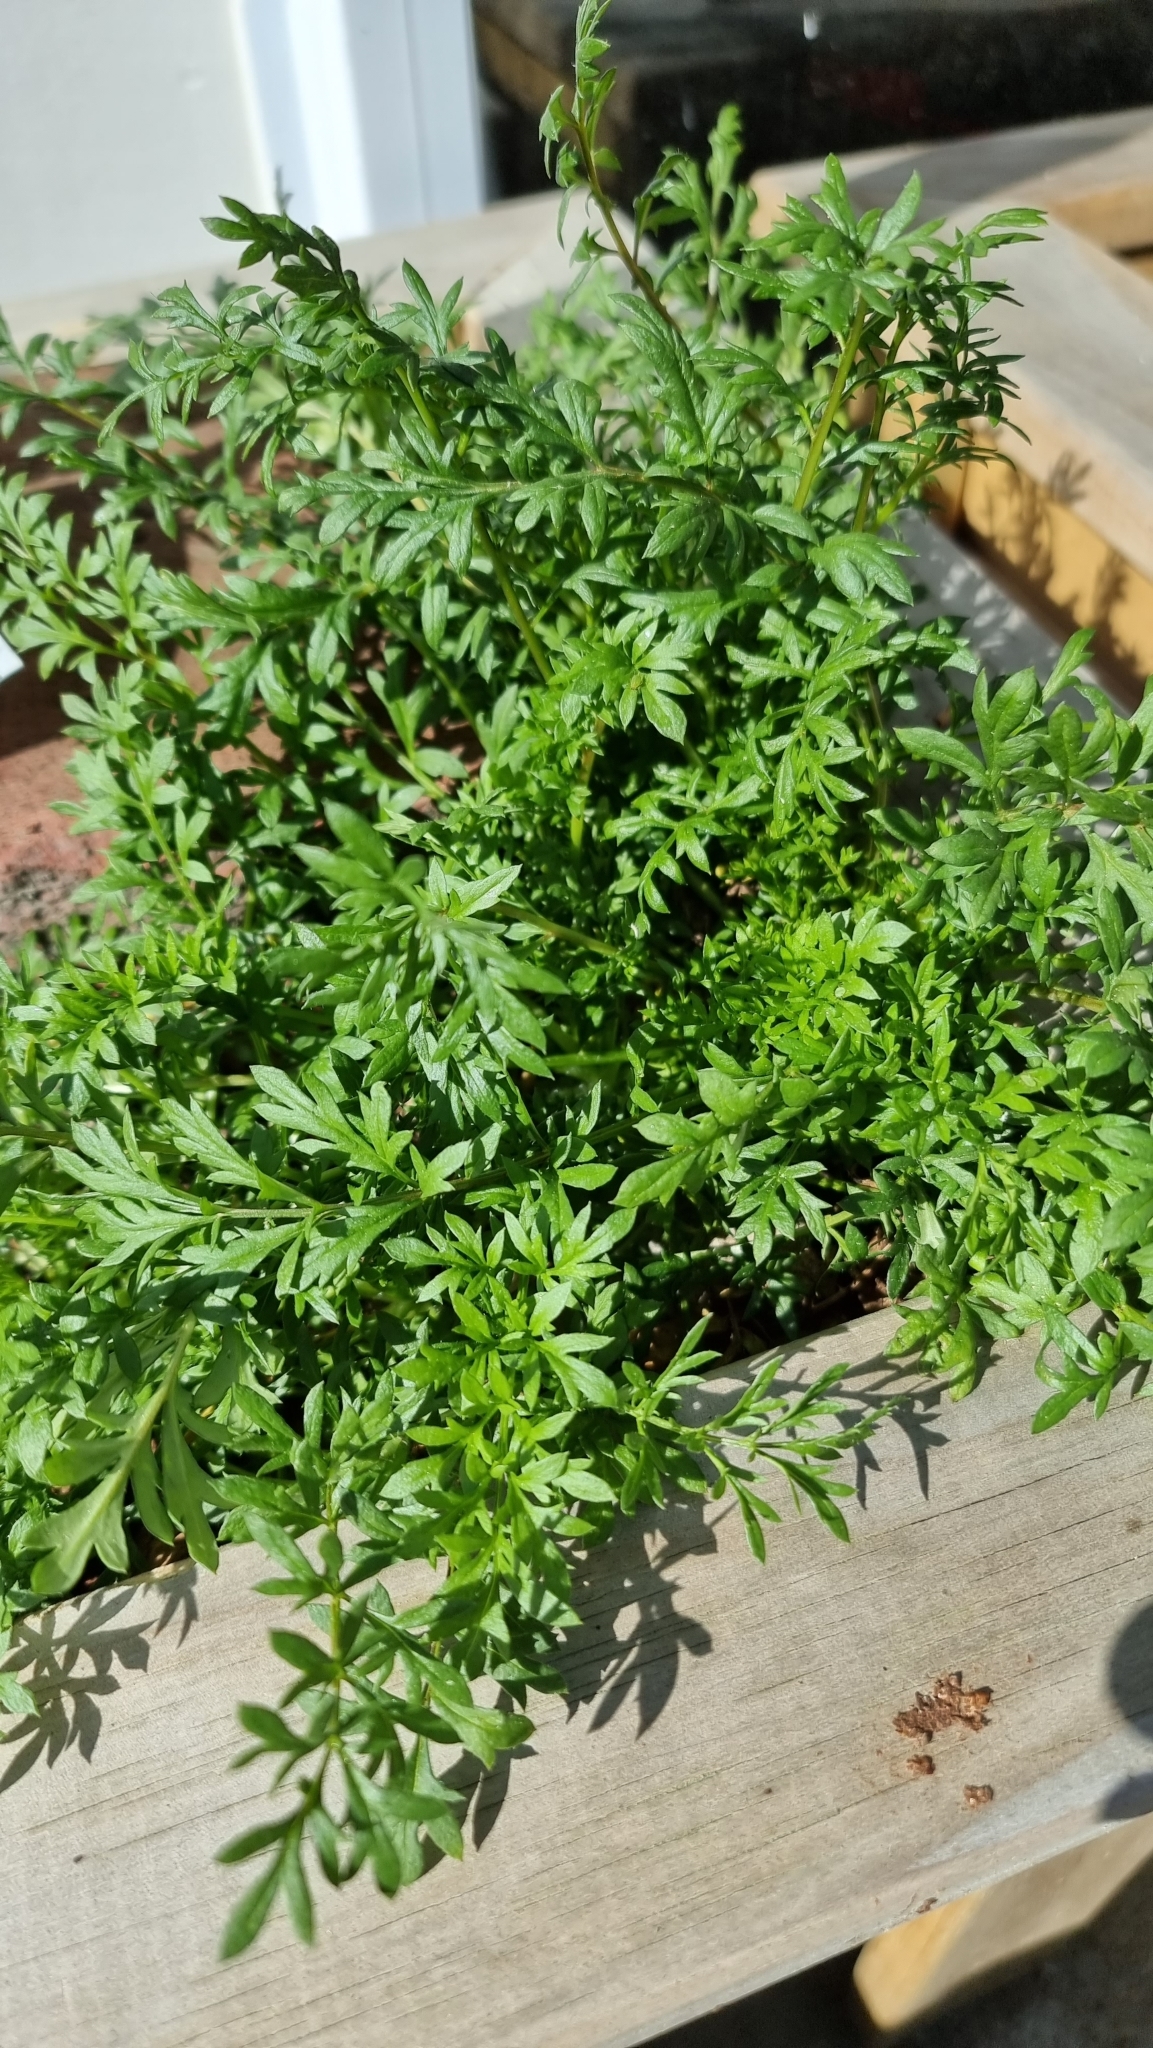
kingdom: Plantae
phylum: Tracheophyta
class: Magnoliopsida
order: Brassicales
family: Brassicaceae
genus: Lepidium
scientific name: Lepidium didymum
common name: Lesser swinecress
